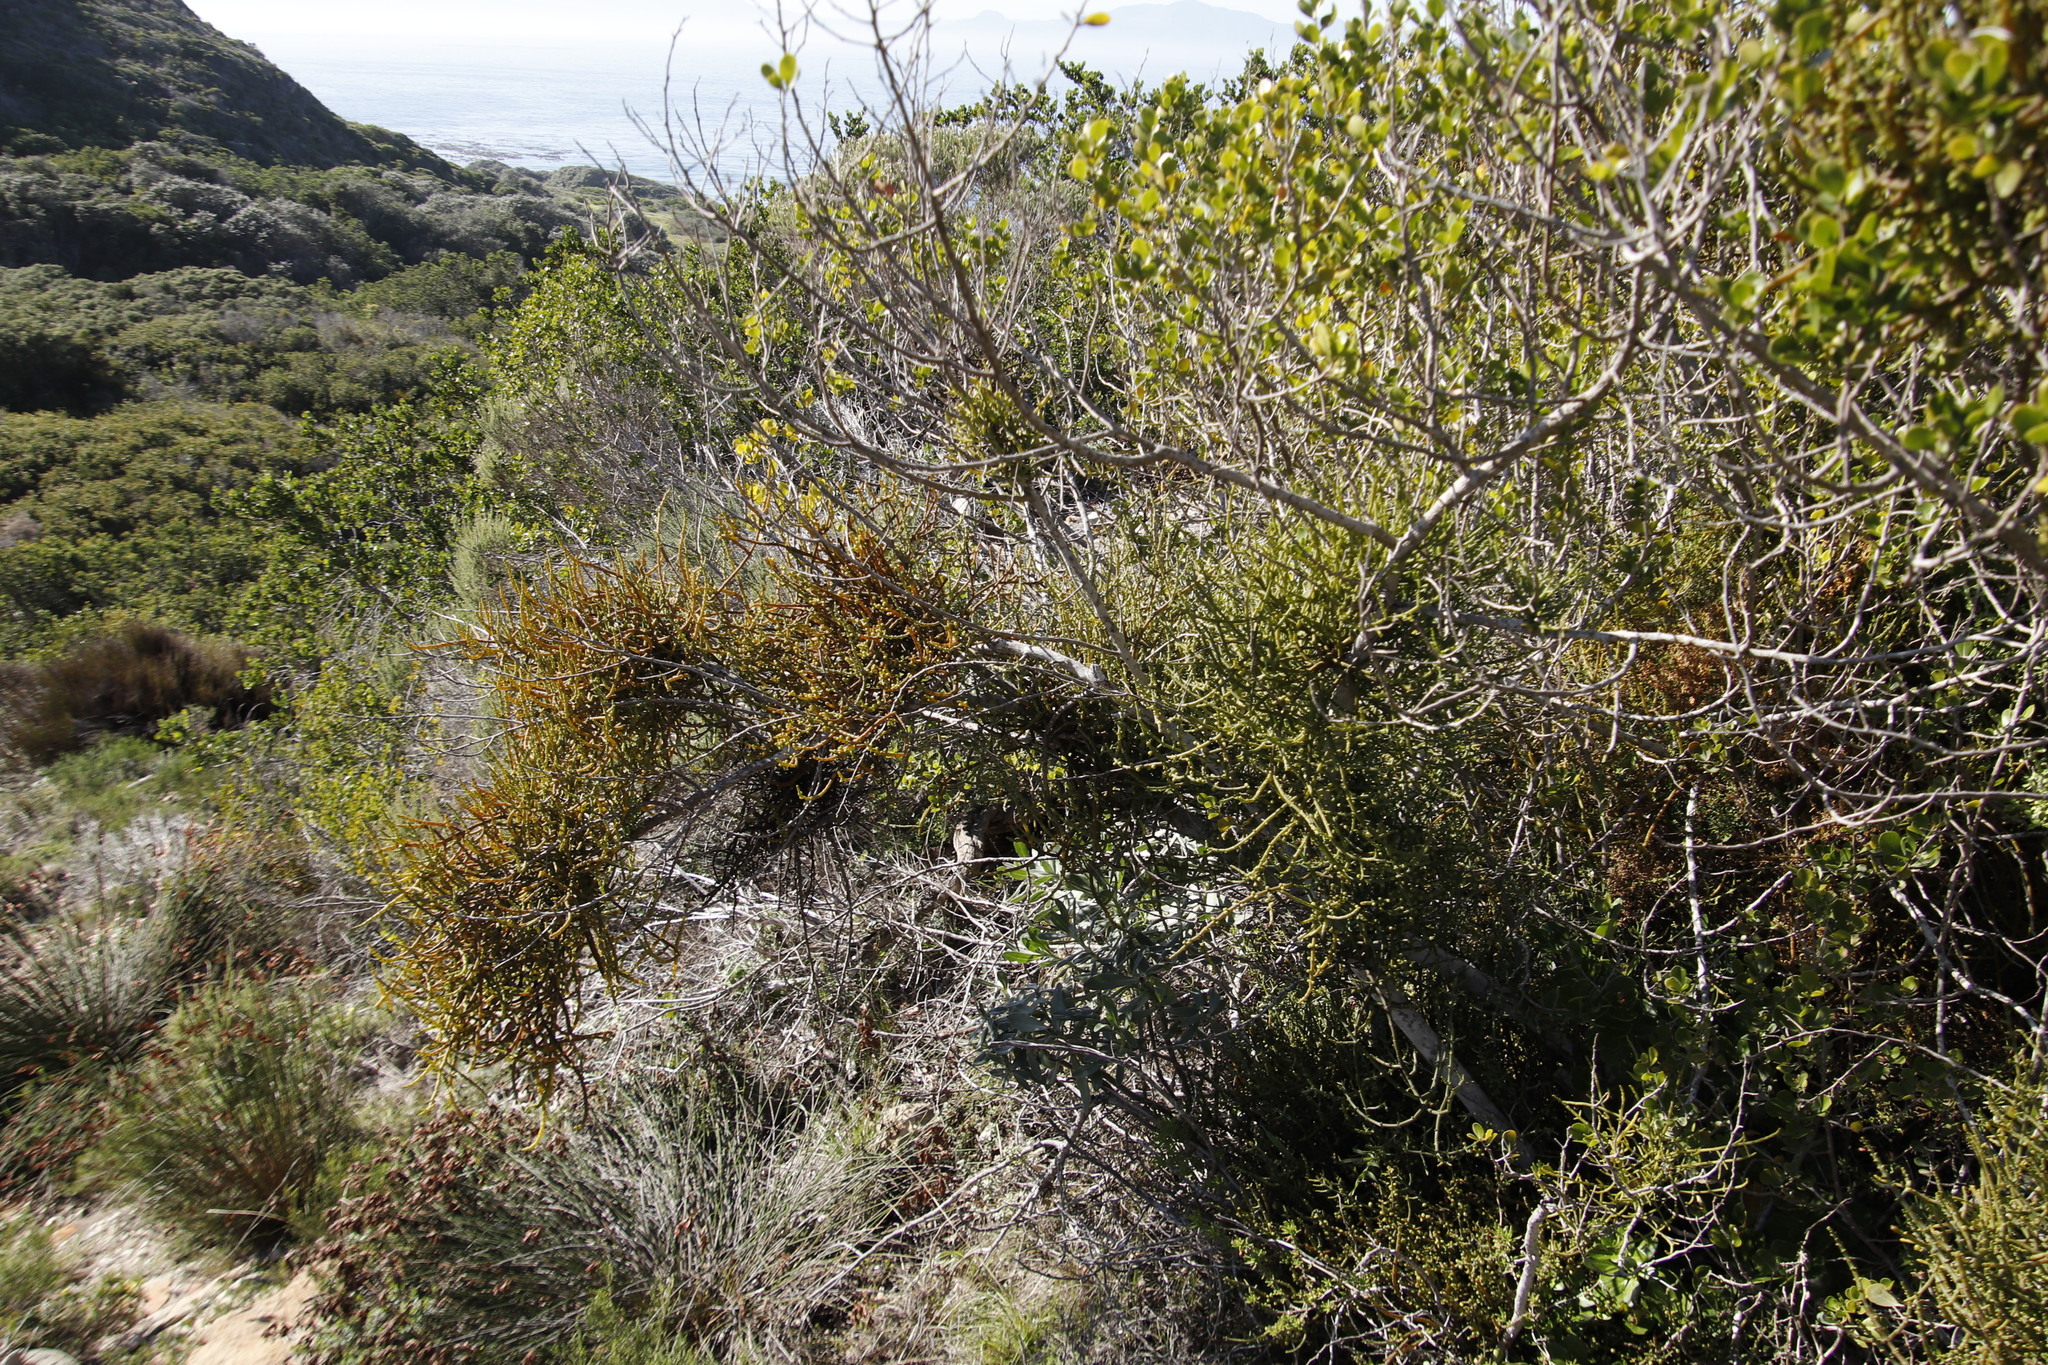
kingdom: Plantae
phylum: Tracheophyta
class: Magnoliopsida
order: Sapindales
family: Anacardiaceae
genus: Searsia
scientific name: Searsia lucida
